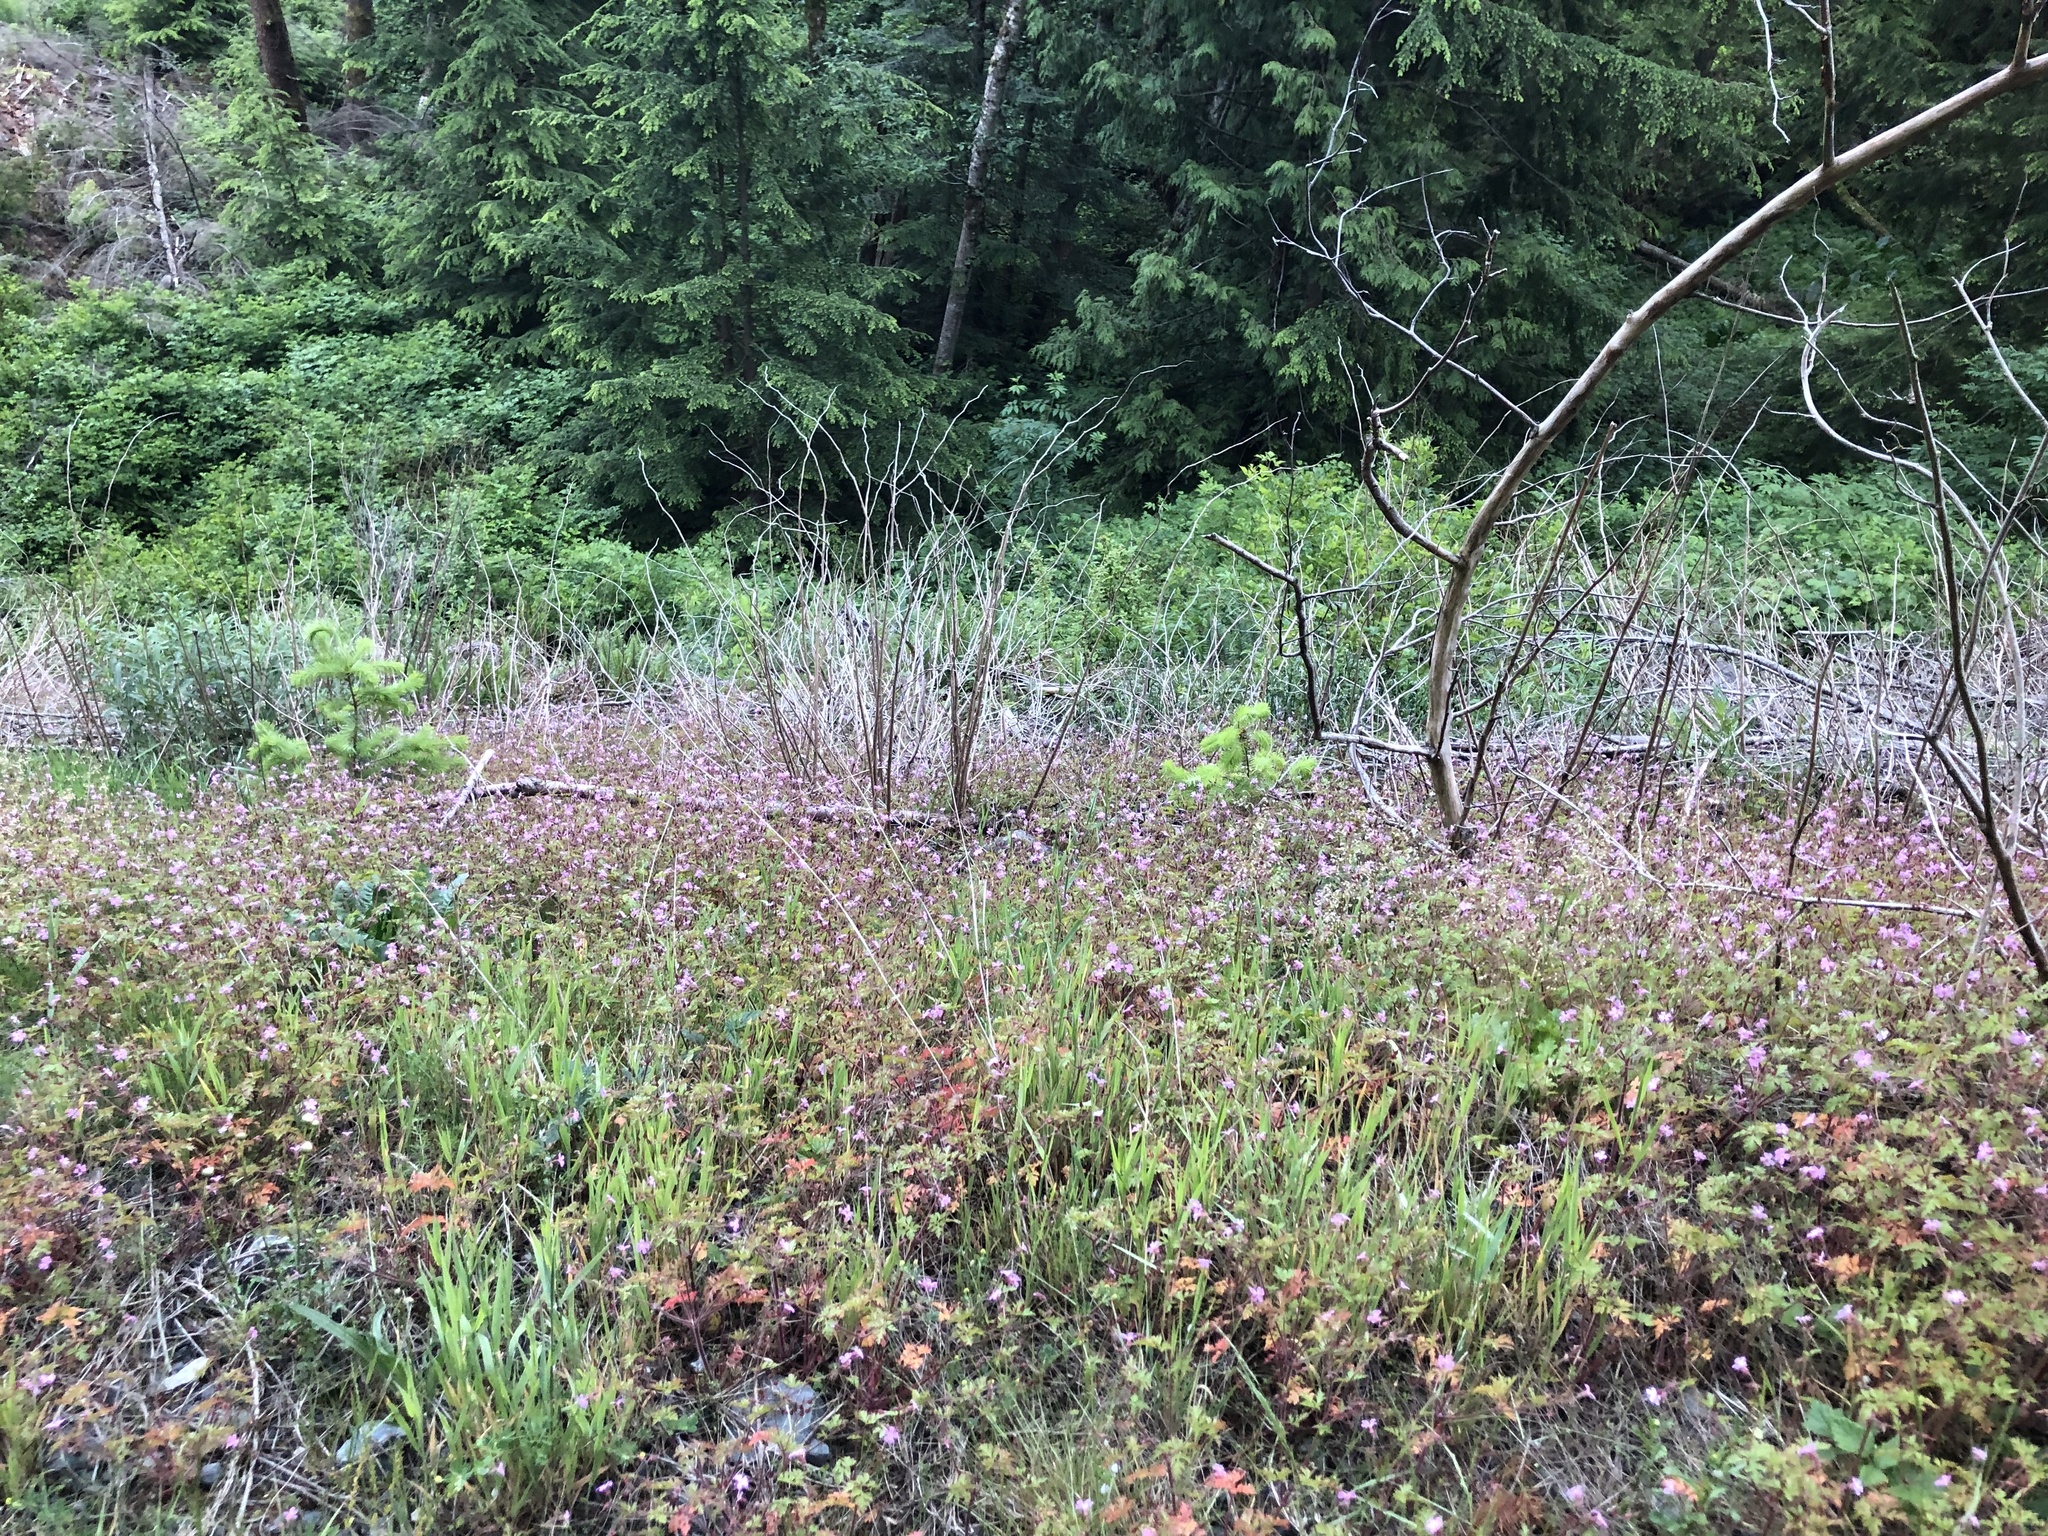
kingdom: Plantae
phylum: Tracheophyta
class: Magnoliopsida
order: Geraniales
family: Geraniaceae
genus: Geranium
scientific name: Geranium robertianum
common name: Herb-robert
